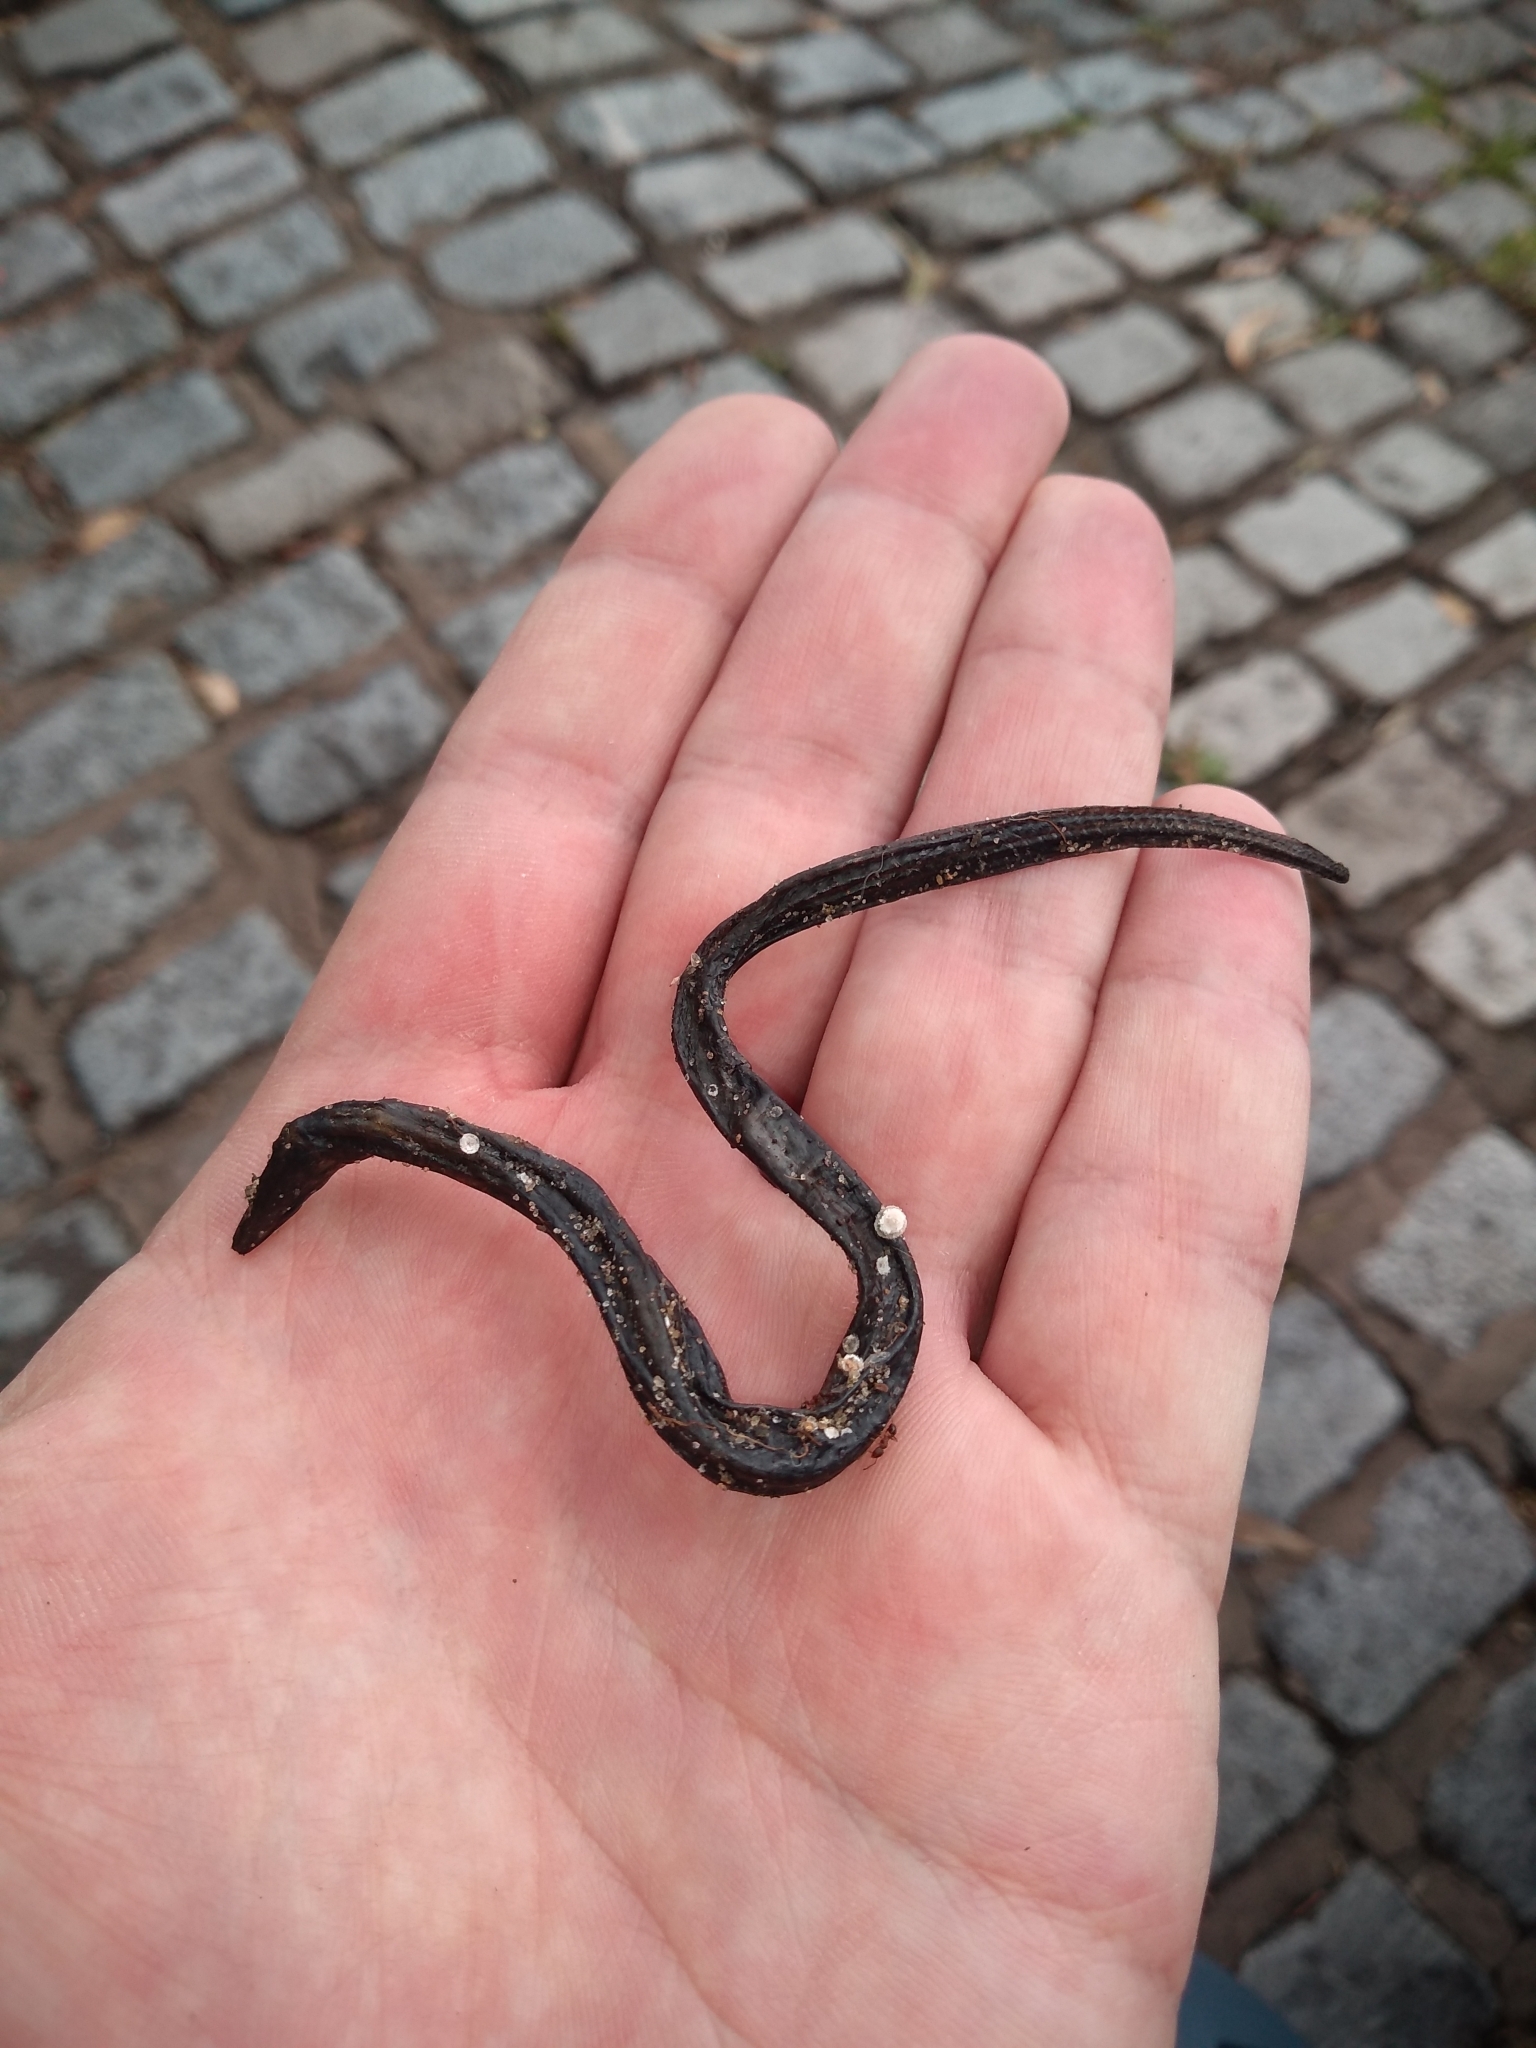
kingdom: Animalia
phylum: Chordata
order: Synbranchiformes
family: Synbranchidae
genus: Synbranchus
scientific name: Synbranchus marmoratus
